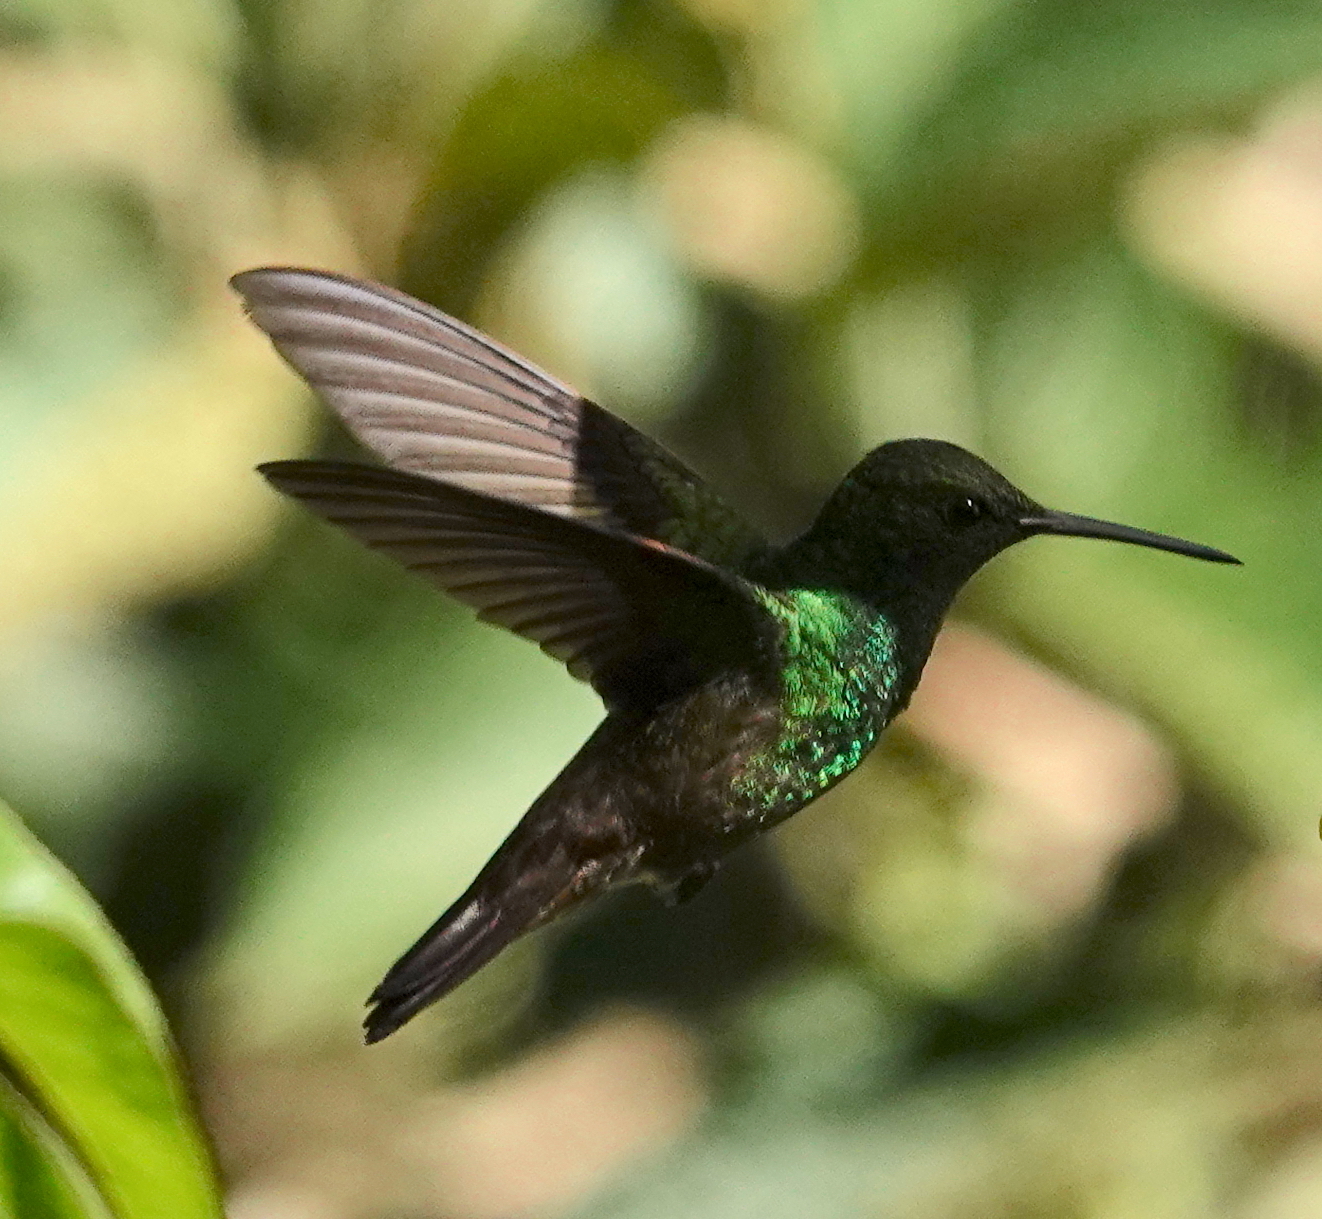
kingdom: Animalia
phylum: Chordata
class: Aves
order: Apodiformes
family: Trochilidae
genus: Saucerottia
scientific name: Saucerottia viridigaster
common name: Green-bellied hummingbird
